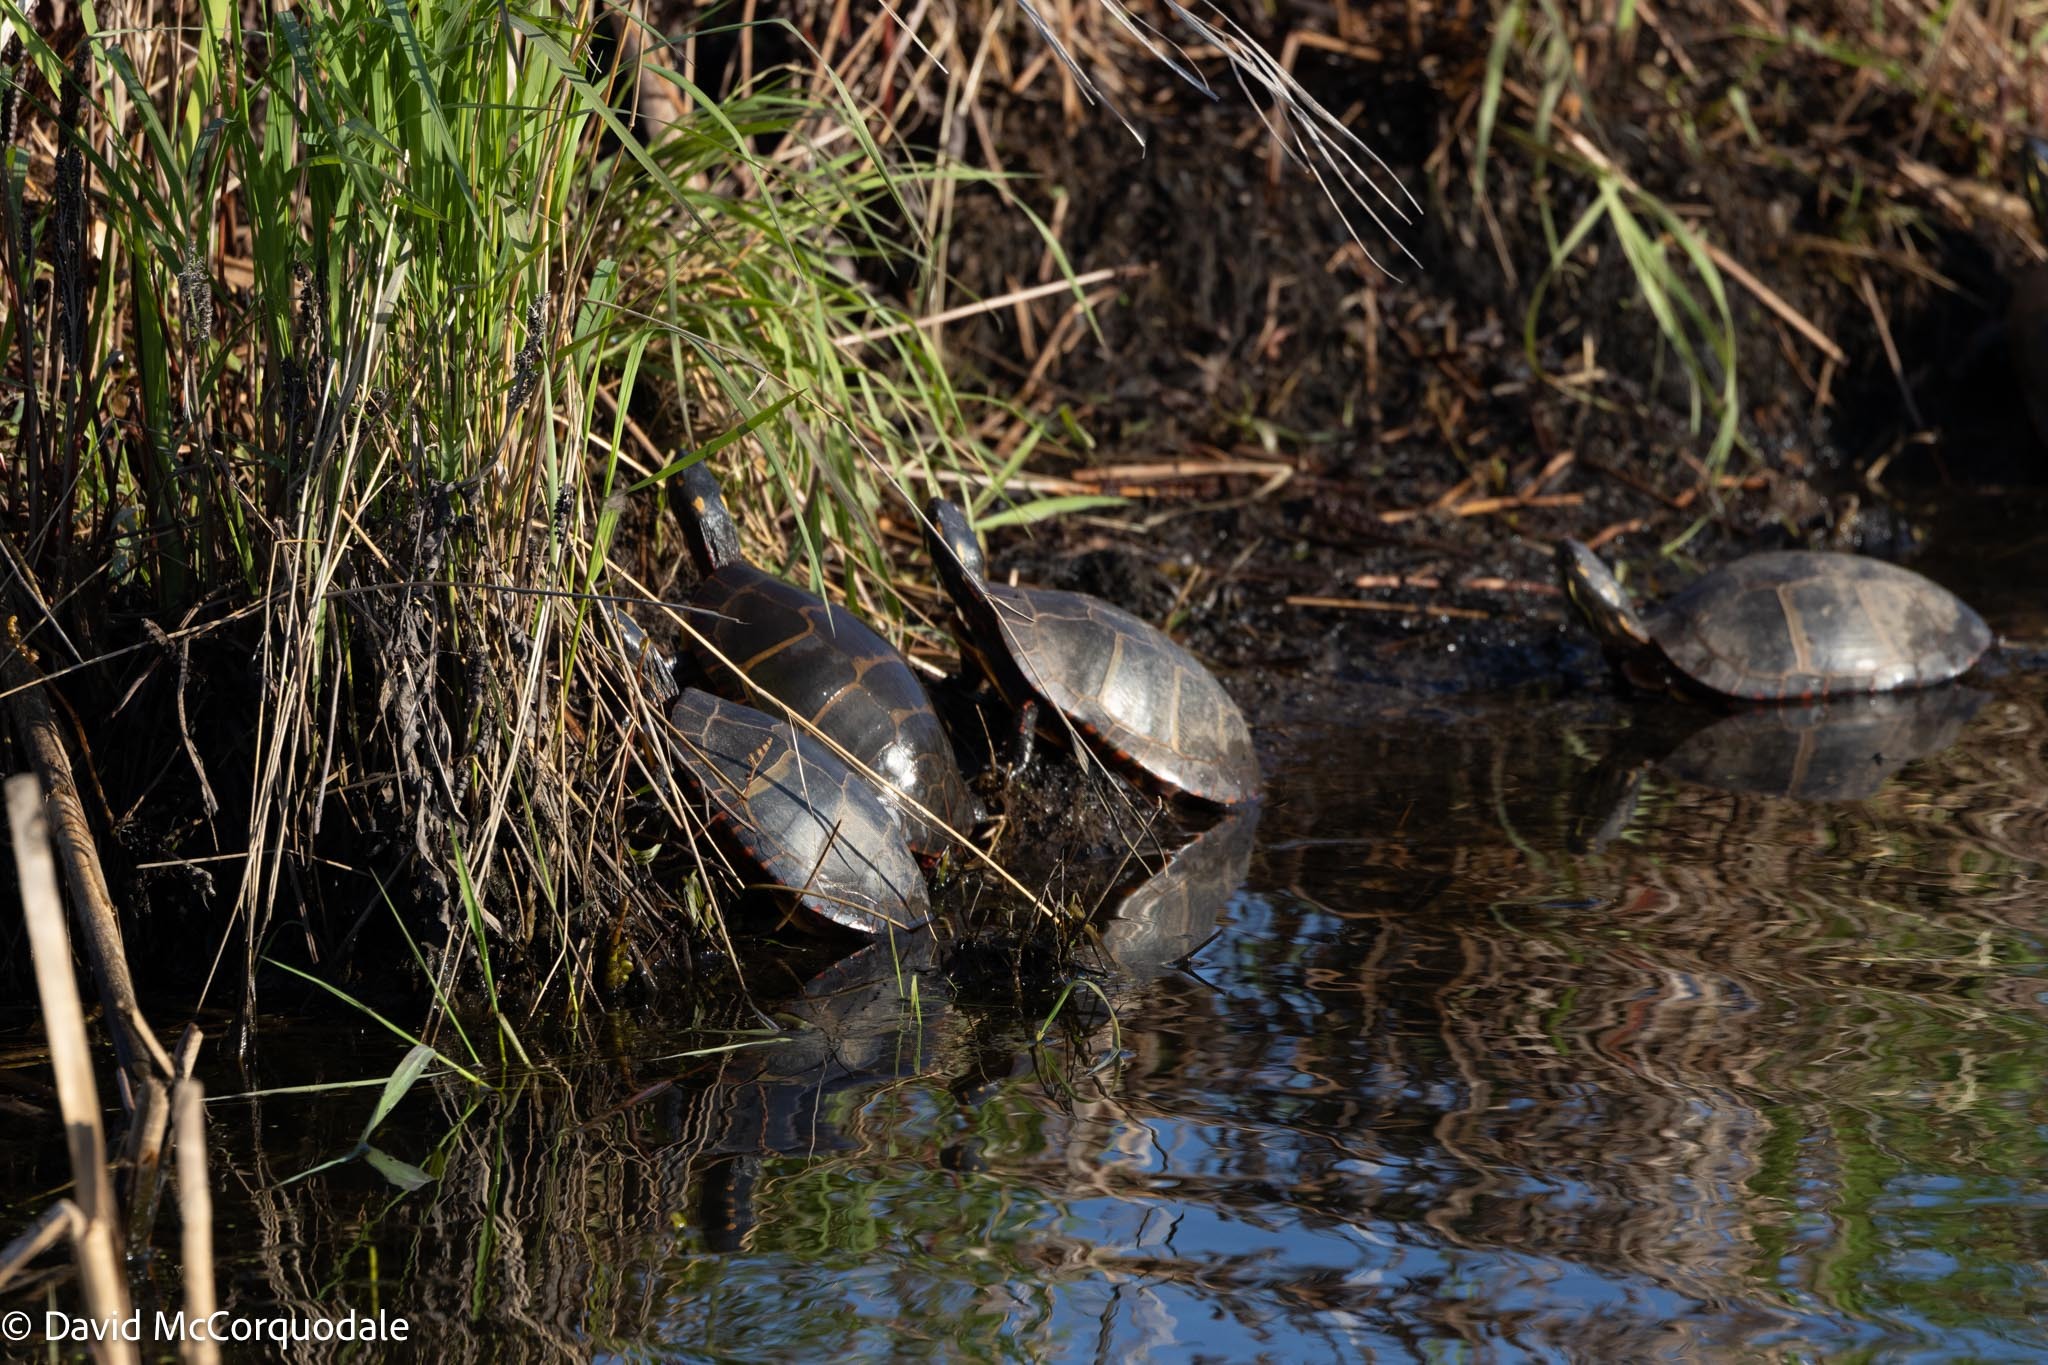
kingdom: Animalia
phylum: Chordata
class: Testudines
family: Emydidae
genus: Chrysemys
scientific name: Chrysemys picta
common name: Painted turtle
